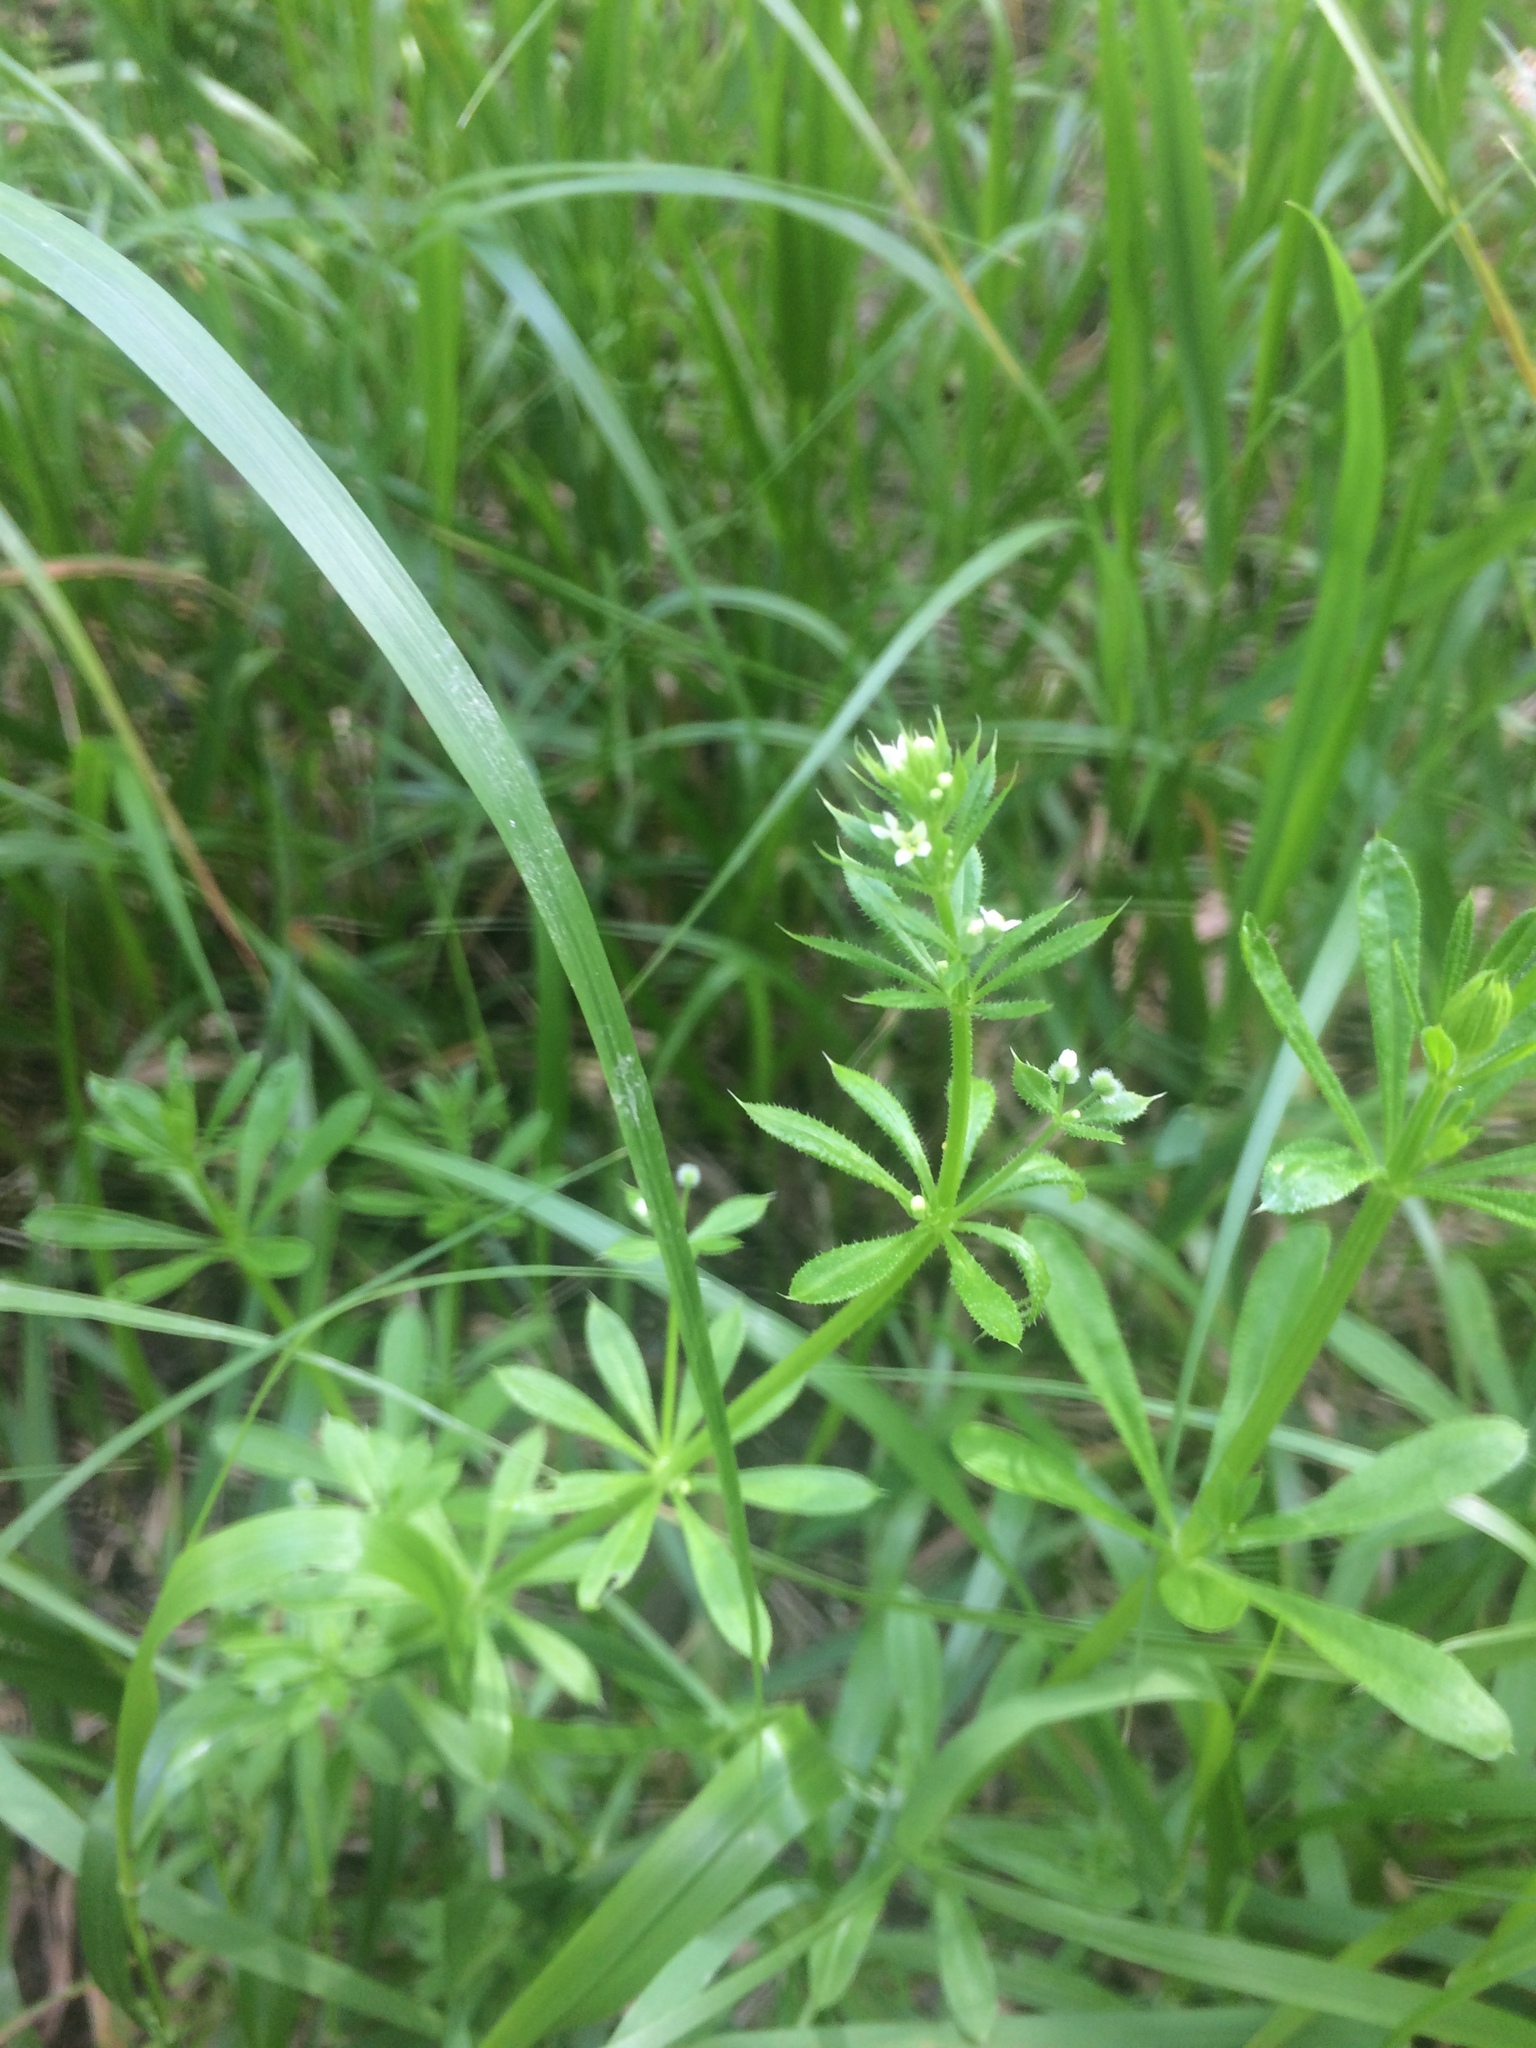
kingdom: Plantae
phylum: Tracheophyta
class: Magnoliopsida
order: Gentianales
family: Rubiaceae
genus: Galium
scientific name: Galium
